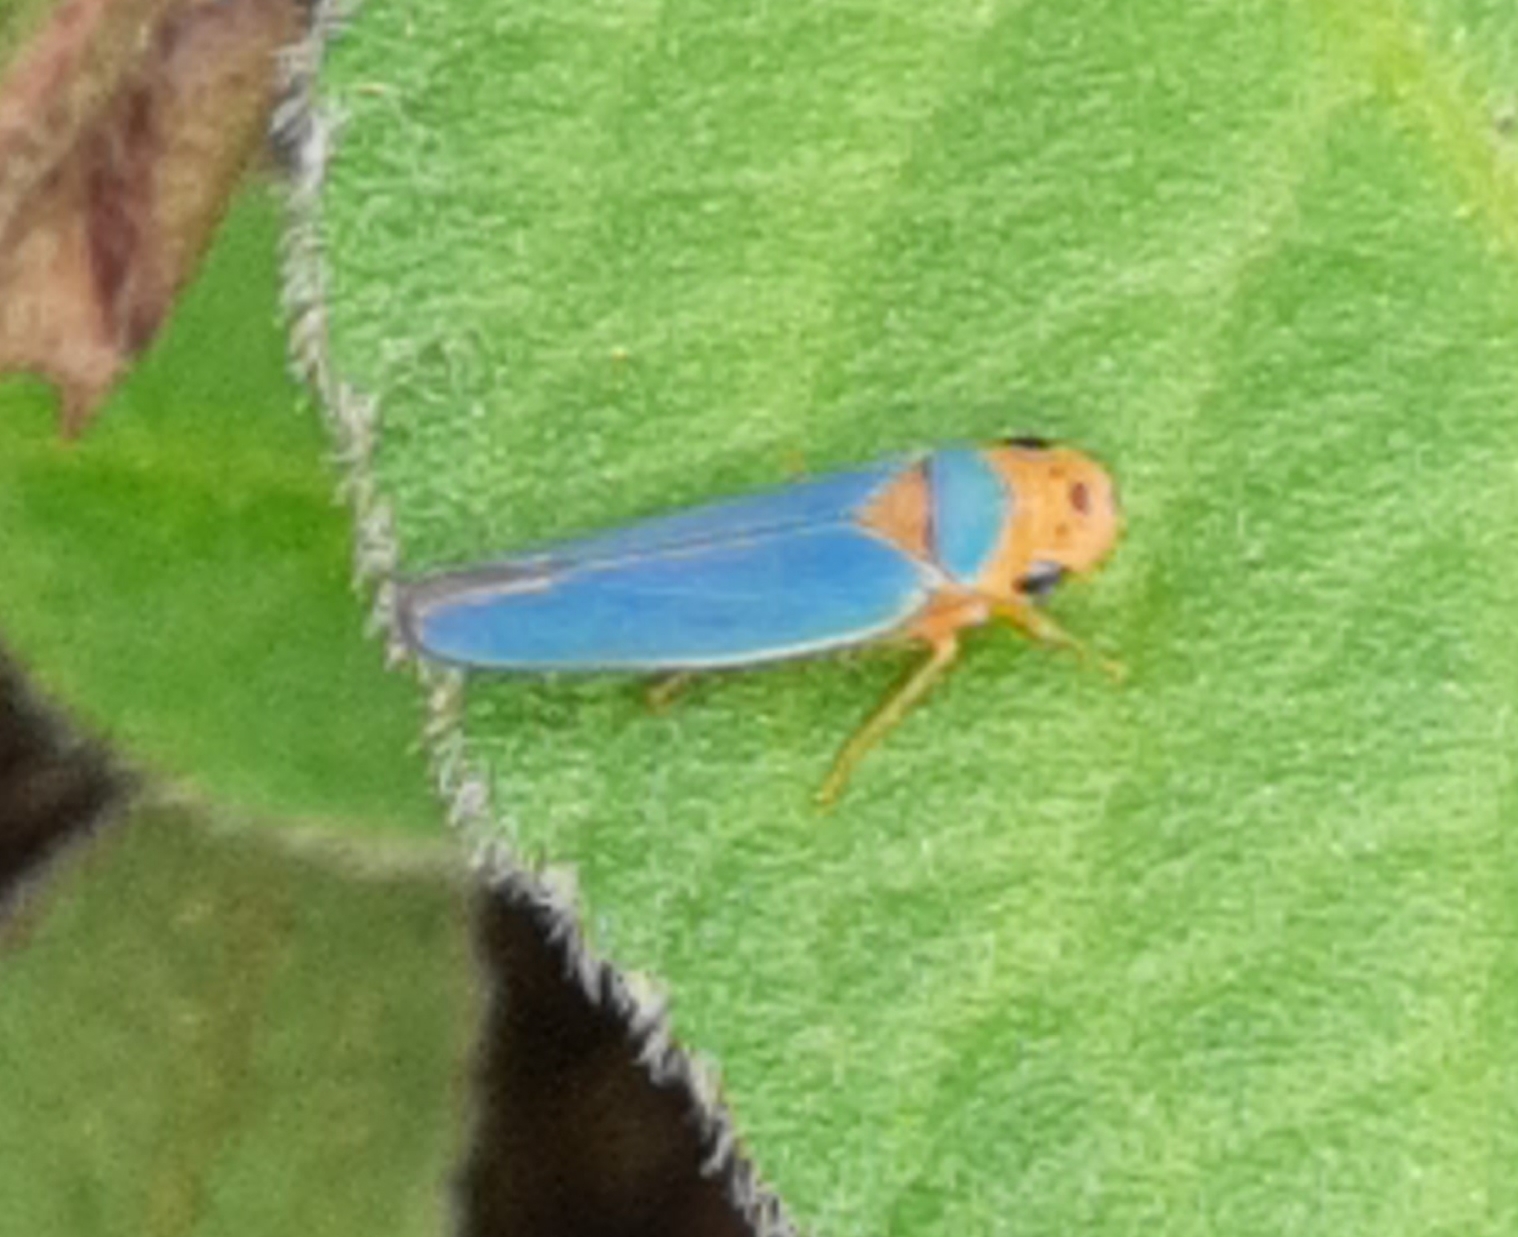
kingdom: Animalia
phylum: Arthropoda
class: Insecta
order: Hemiptera
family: Cicadellidae
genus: Macunolla
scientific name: Macunolla ventralis
